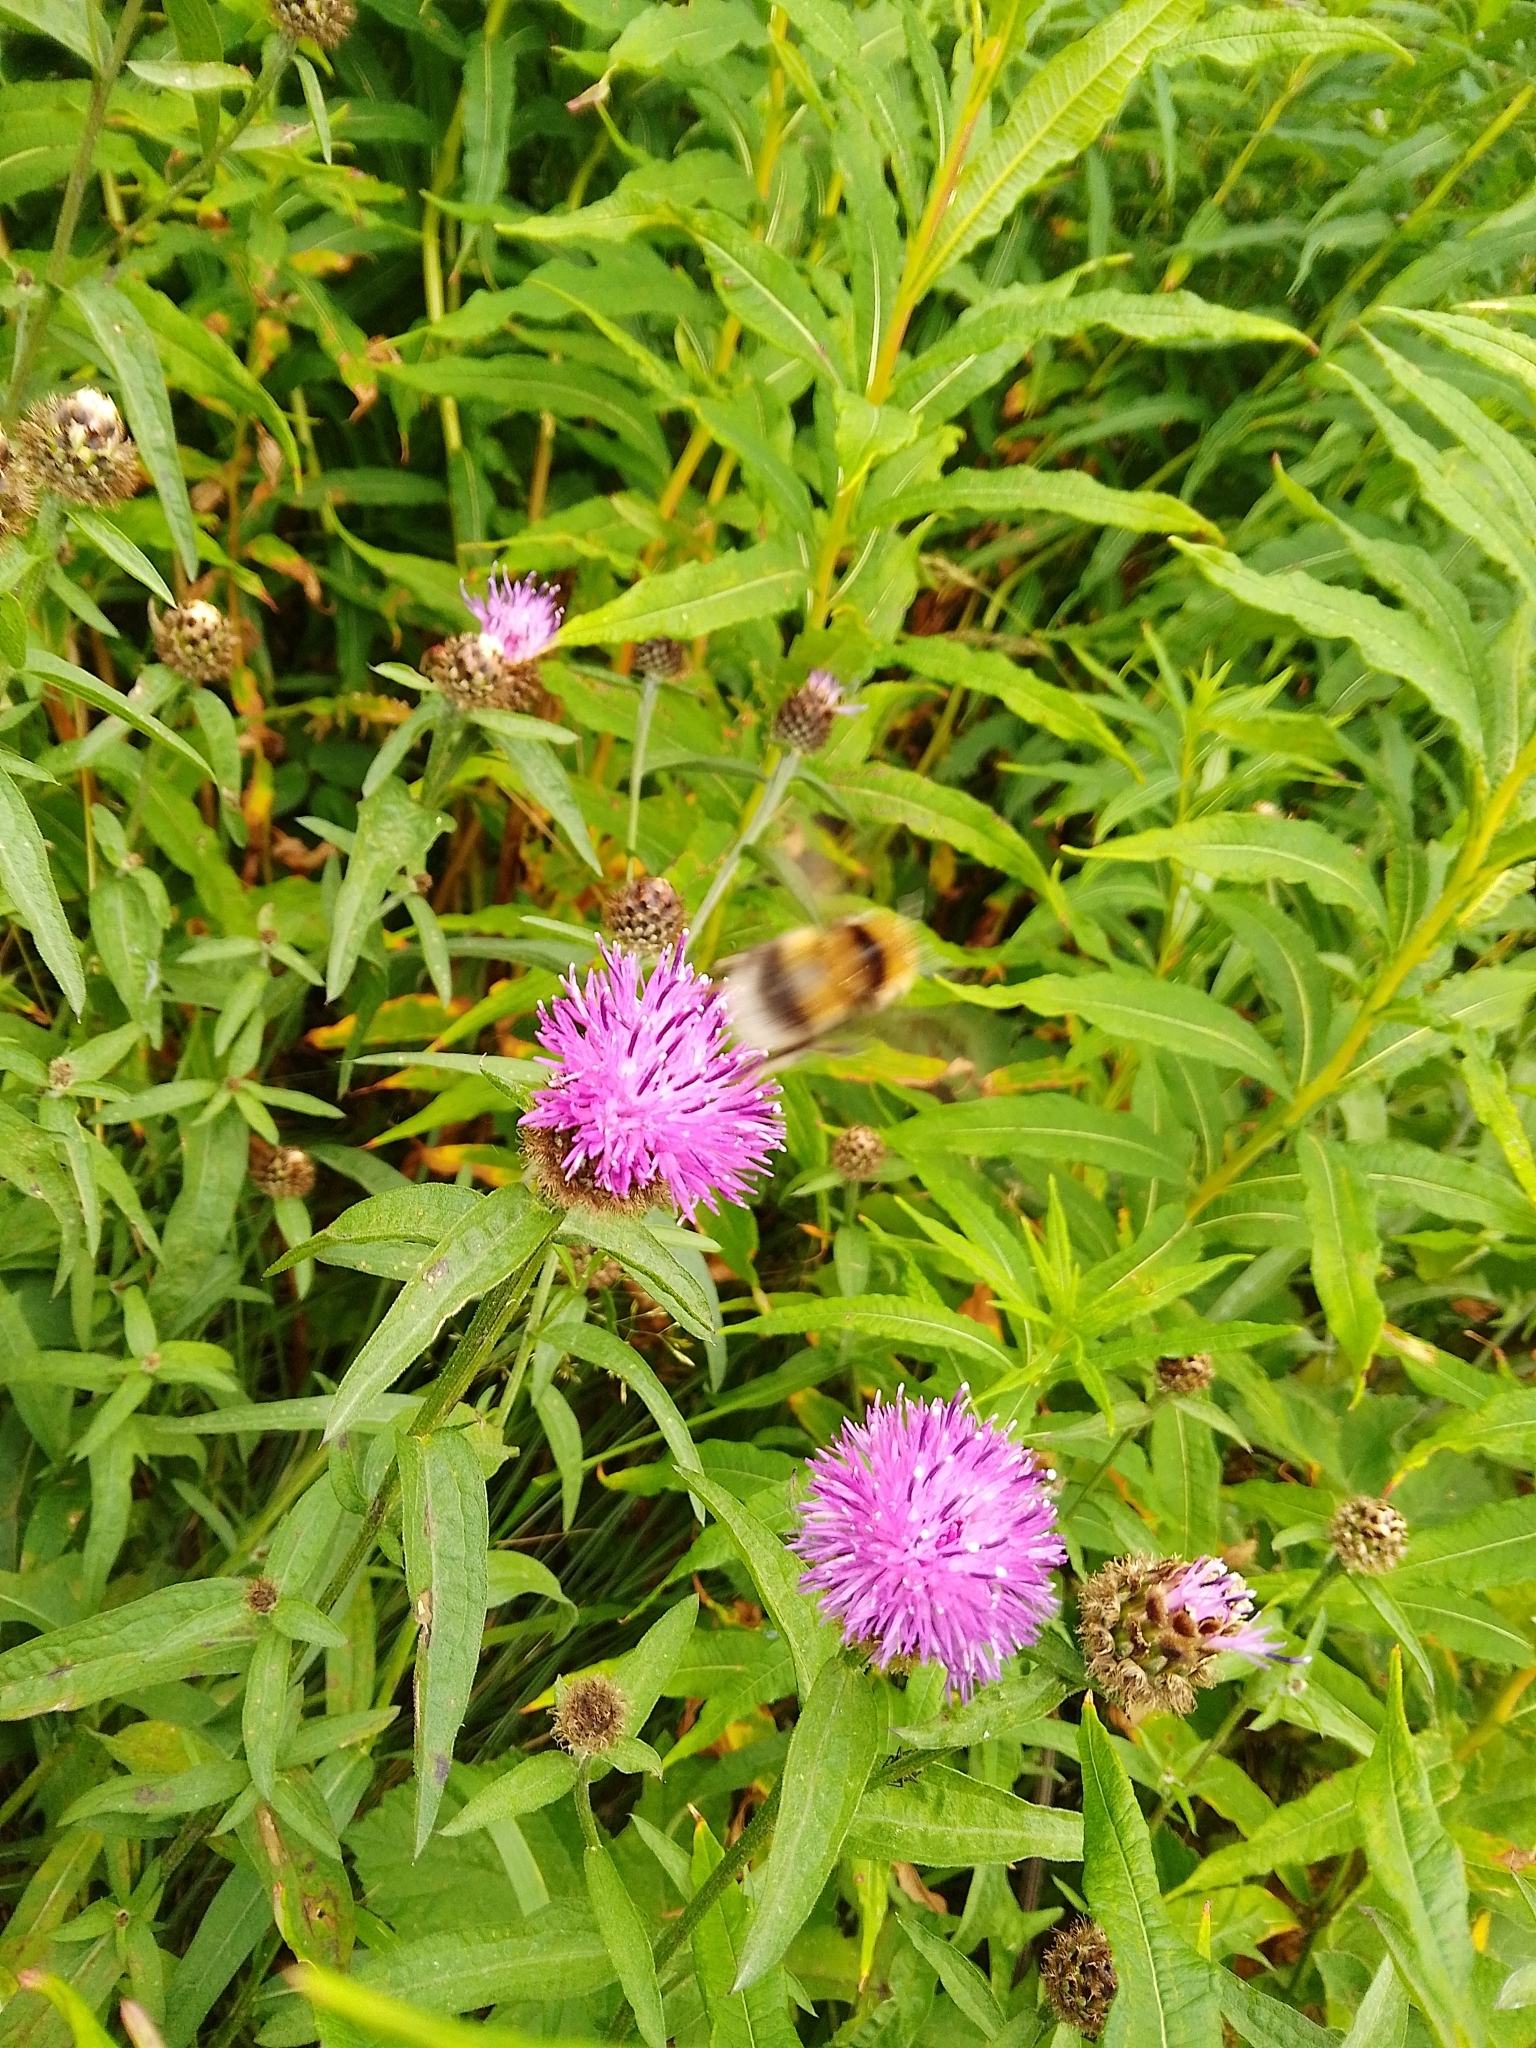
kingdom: Plantae
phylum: Tracheophyta
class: Magnoliopsida
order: Asterales
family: Asteraceae
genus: Centaurea
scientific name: Centaurea nigra
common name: Lesser knapweed
